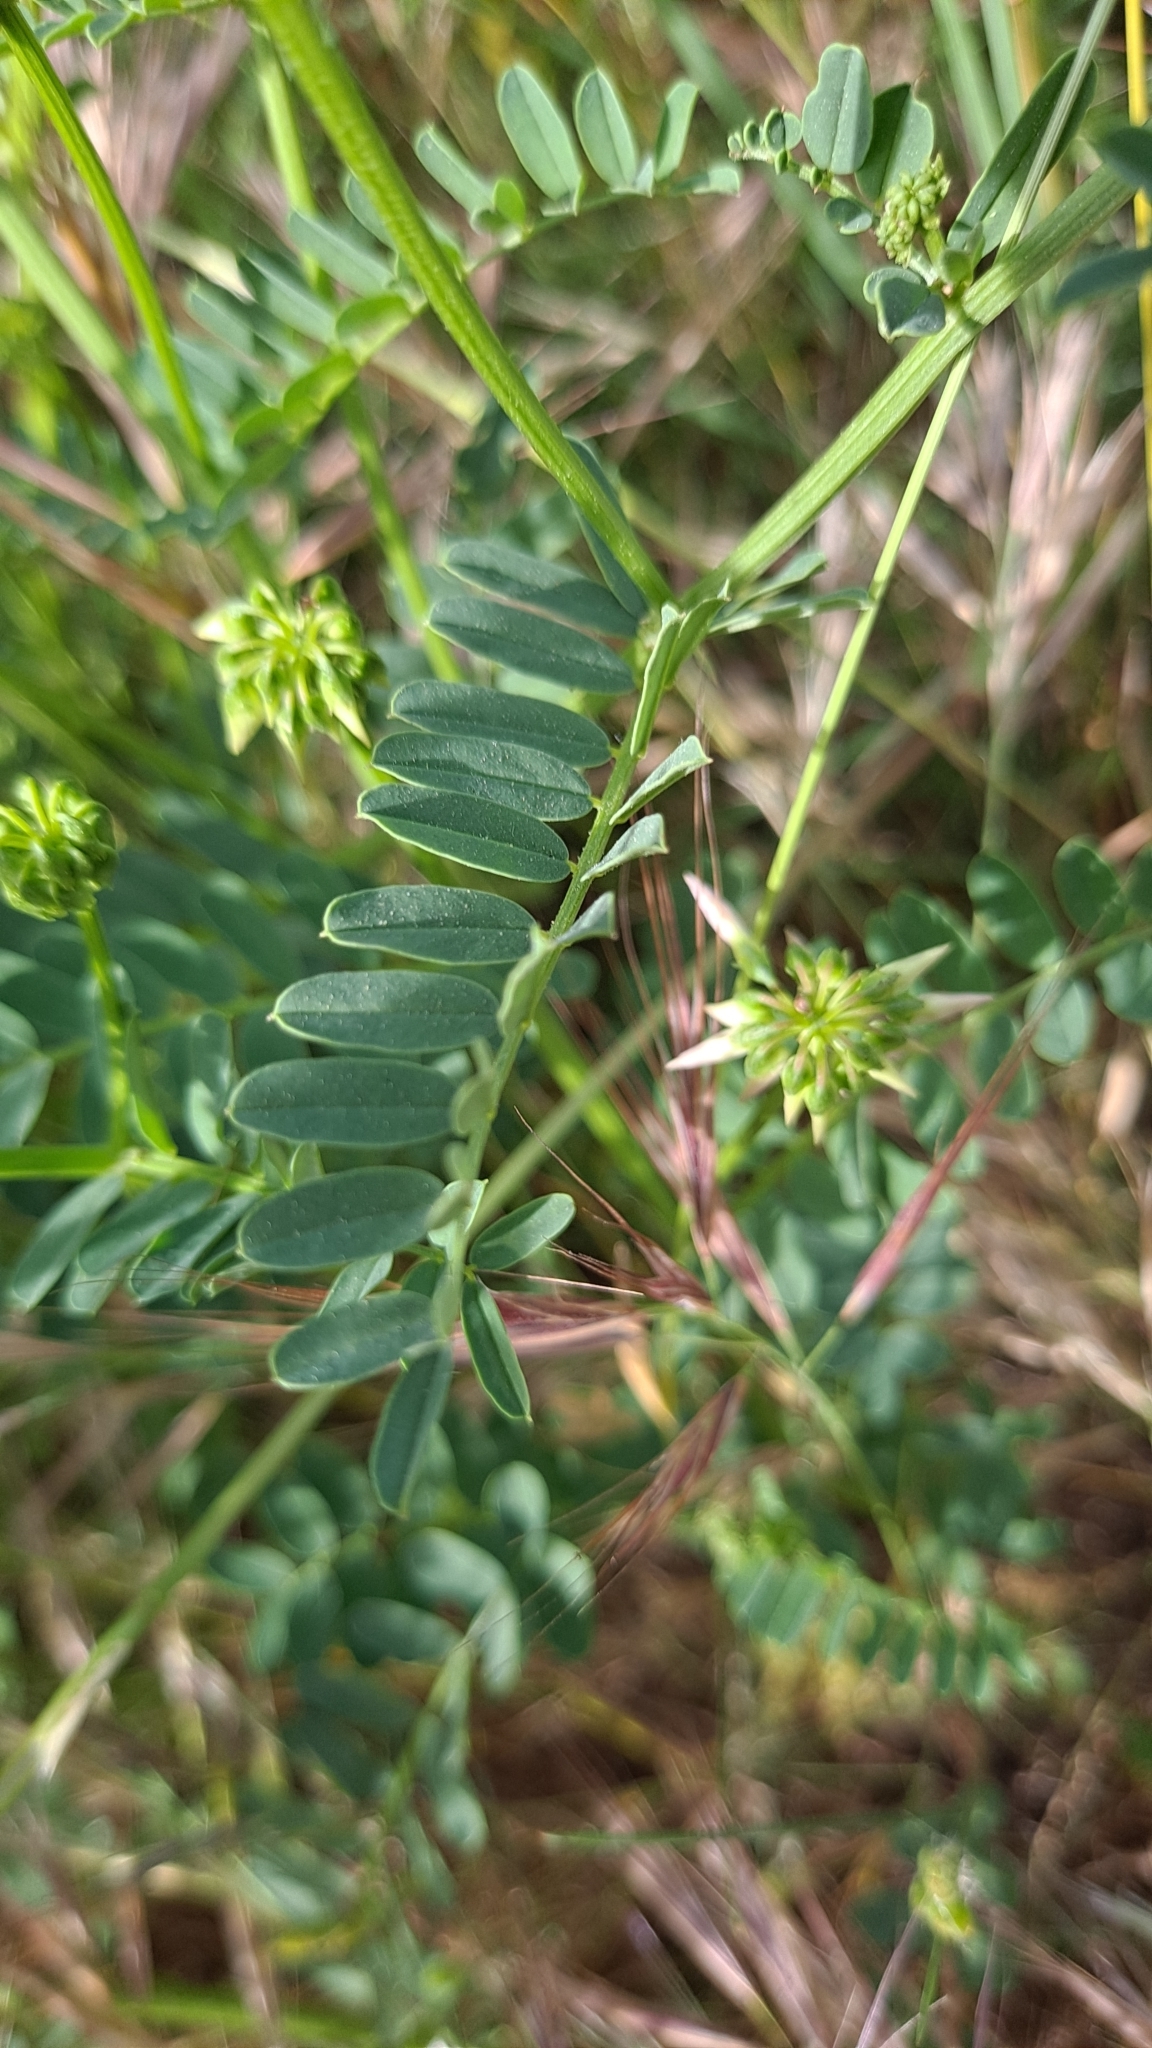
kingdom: Plantae
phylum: Tracheophyta
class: Magnoliopsida
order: Fabales
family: Fabaceae
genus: Coronilla
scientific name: Coronilla varia
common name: Crownvetch
